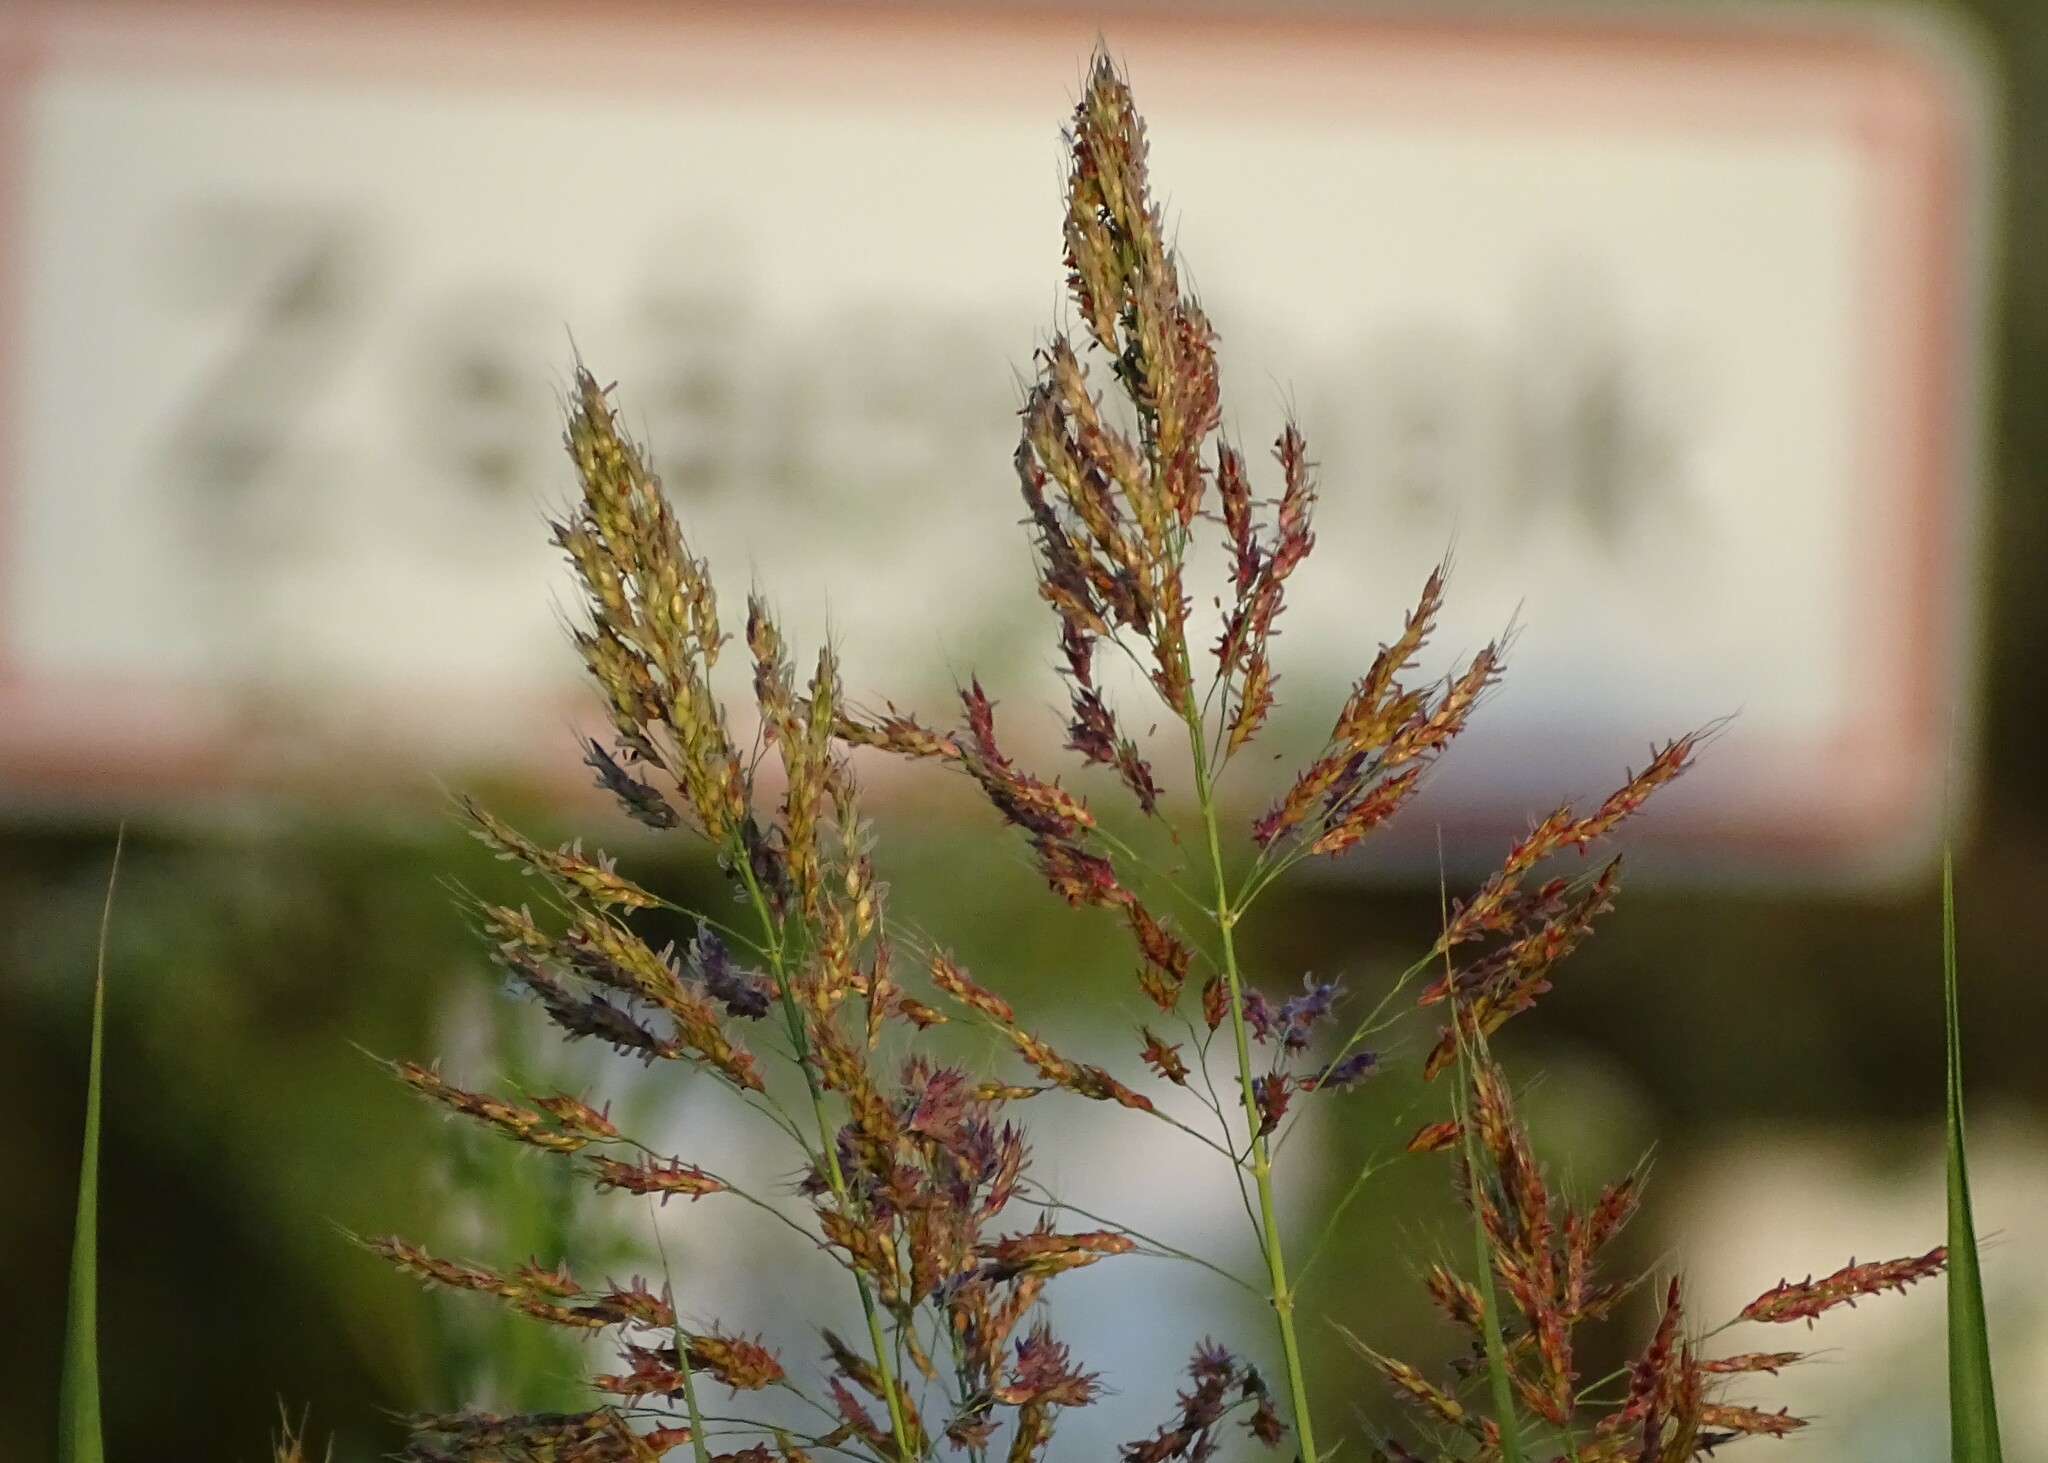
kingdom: Plantae
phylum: Tracheophyta
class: Liliopsida
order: Poales
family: Poaceae
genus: Sorghum
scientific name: Sorghum halepense
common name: Johnson-grass
